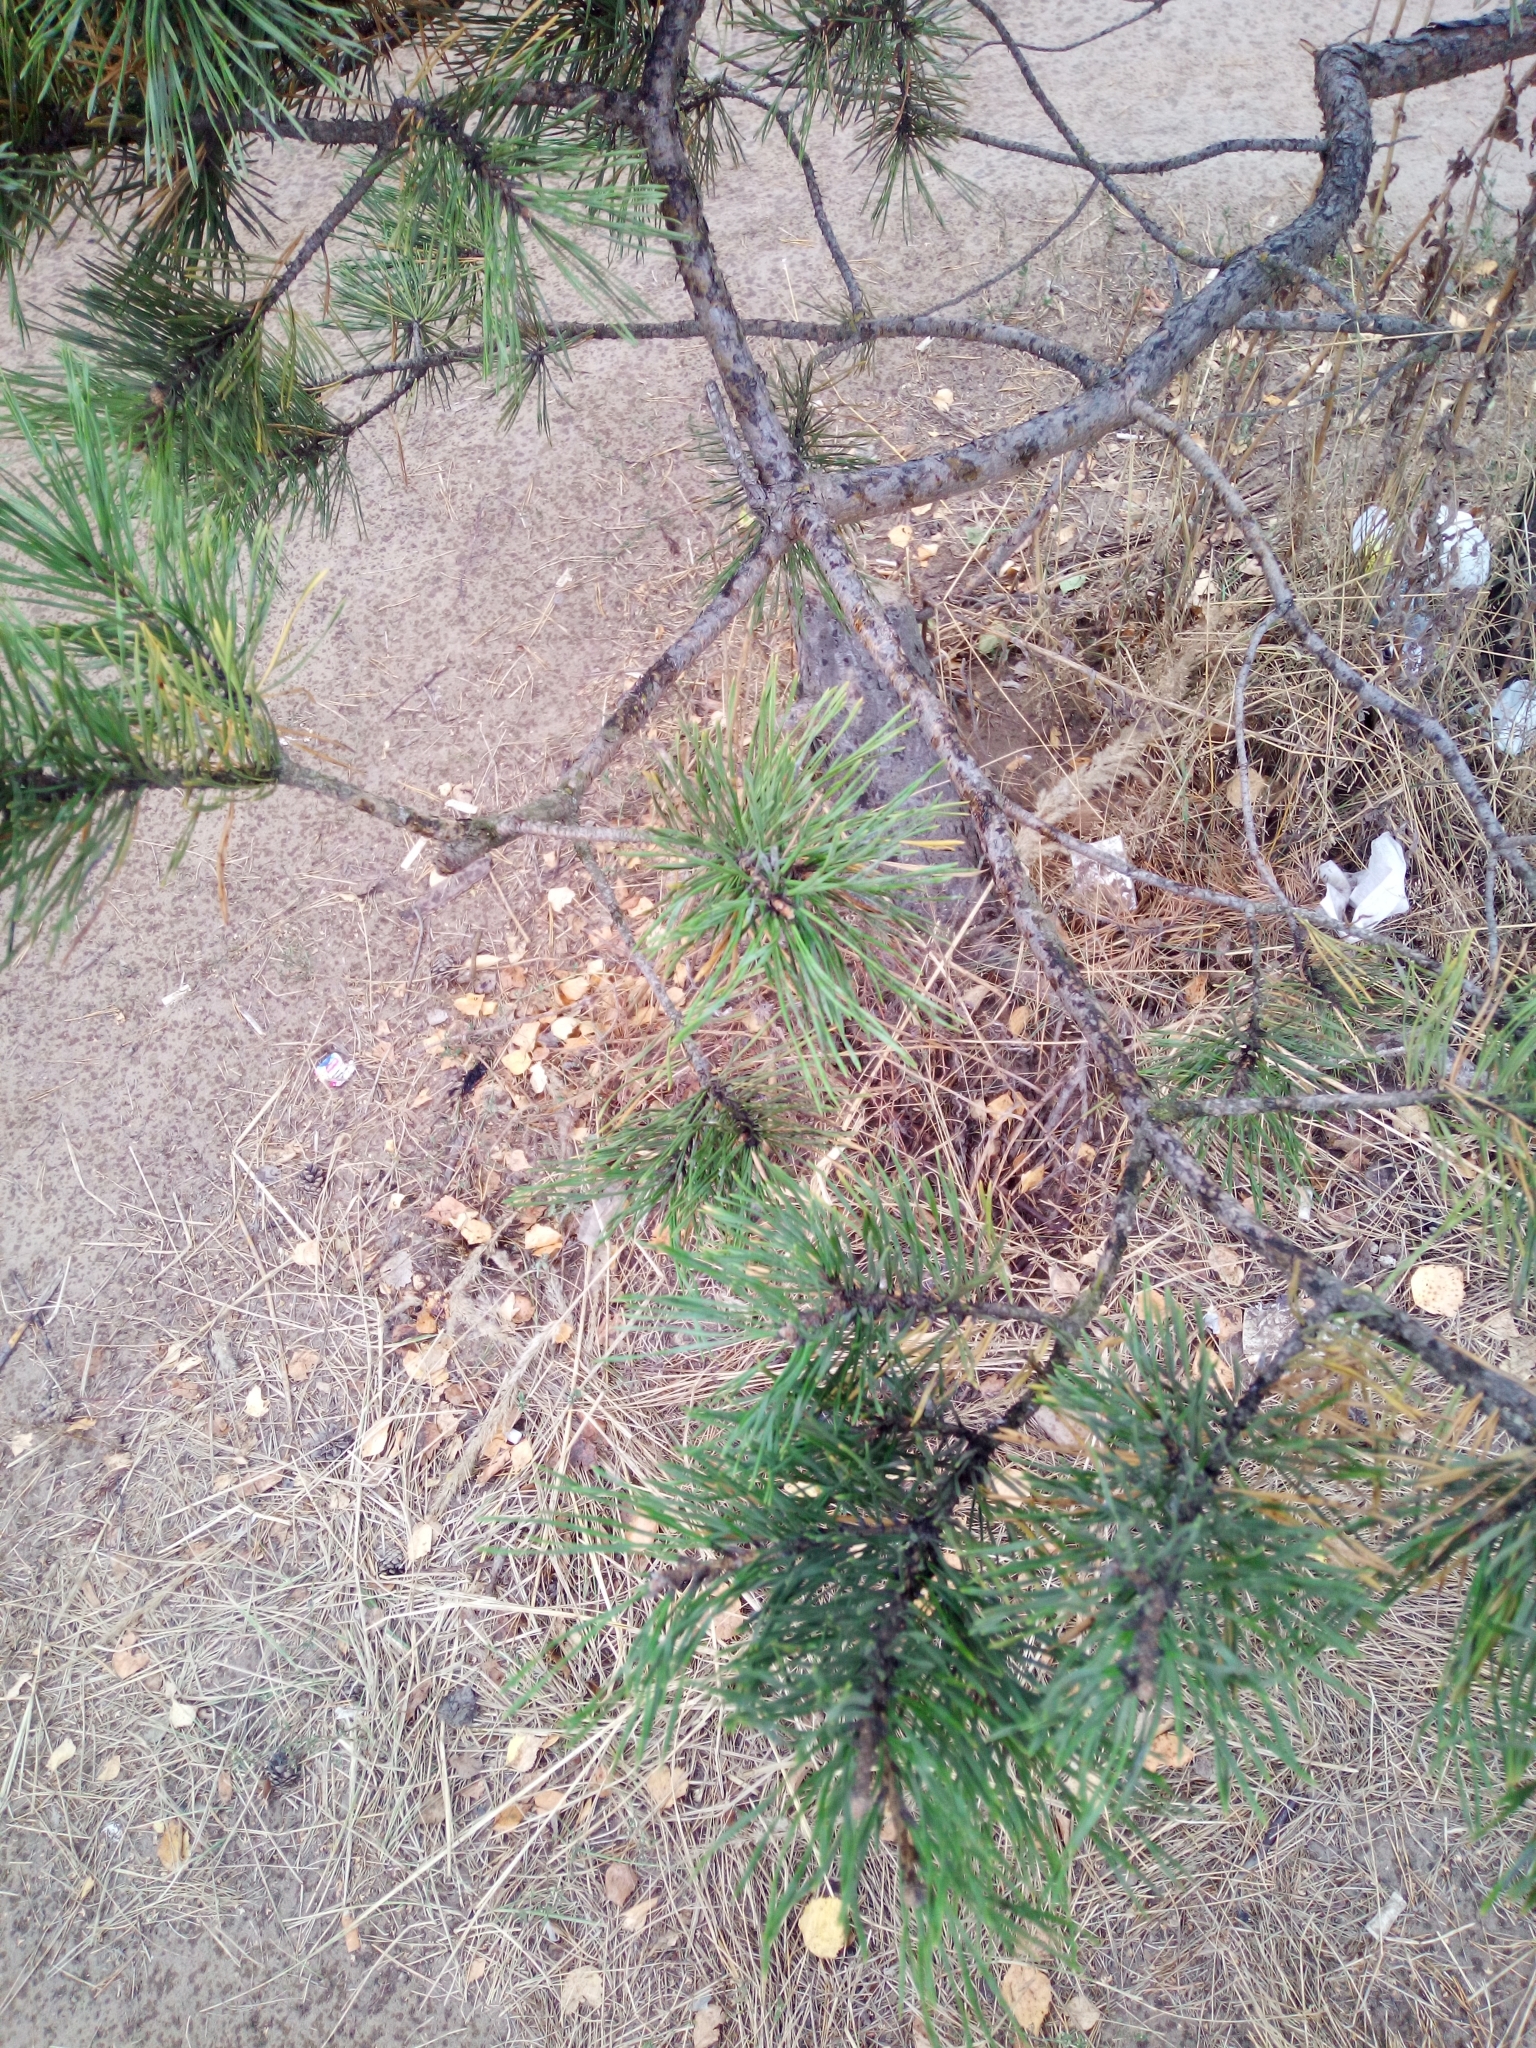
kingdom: Plantae
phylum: Tracheophyta
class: Pinopsida
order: Pinales
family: Pinaceae
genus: Pinus
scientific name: Pinus sylvestris
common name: Scots pine
